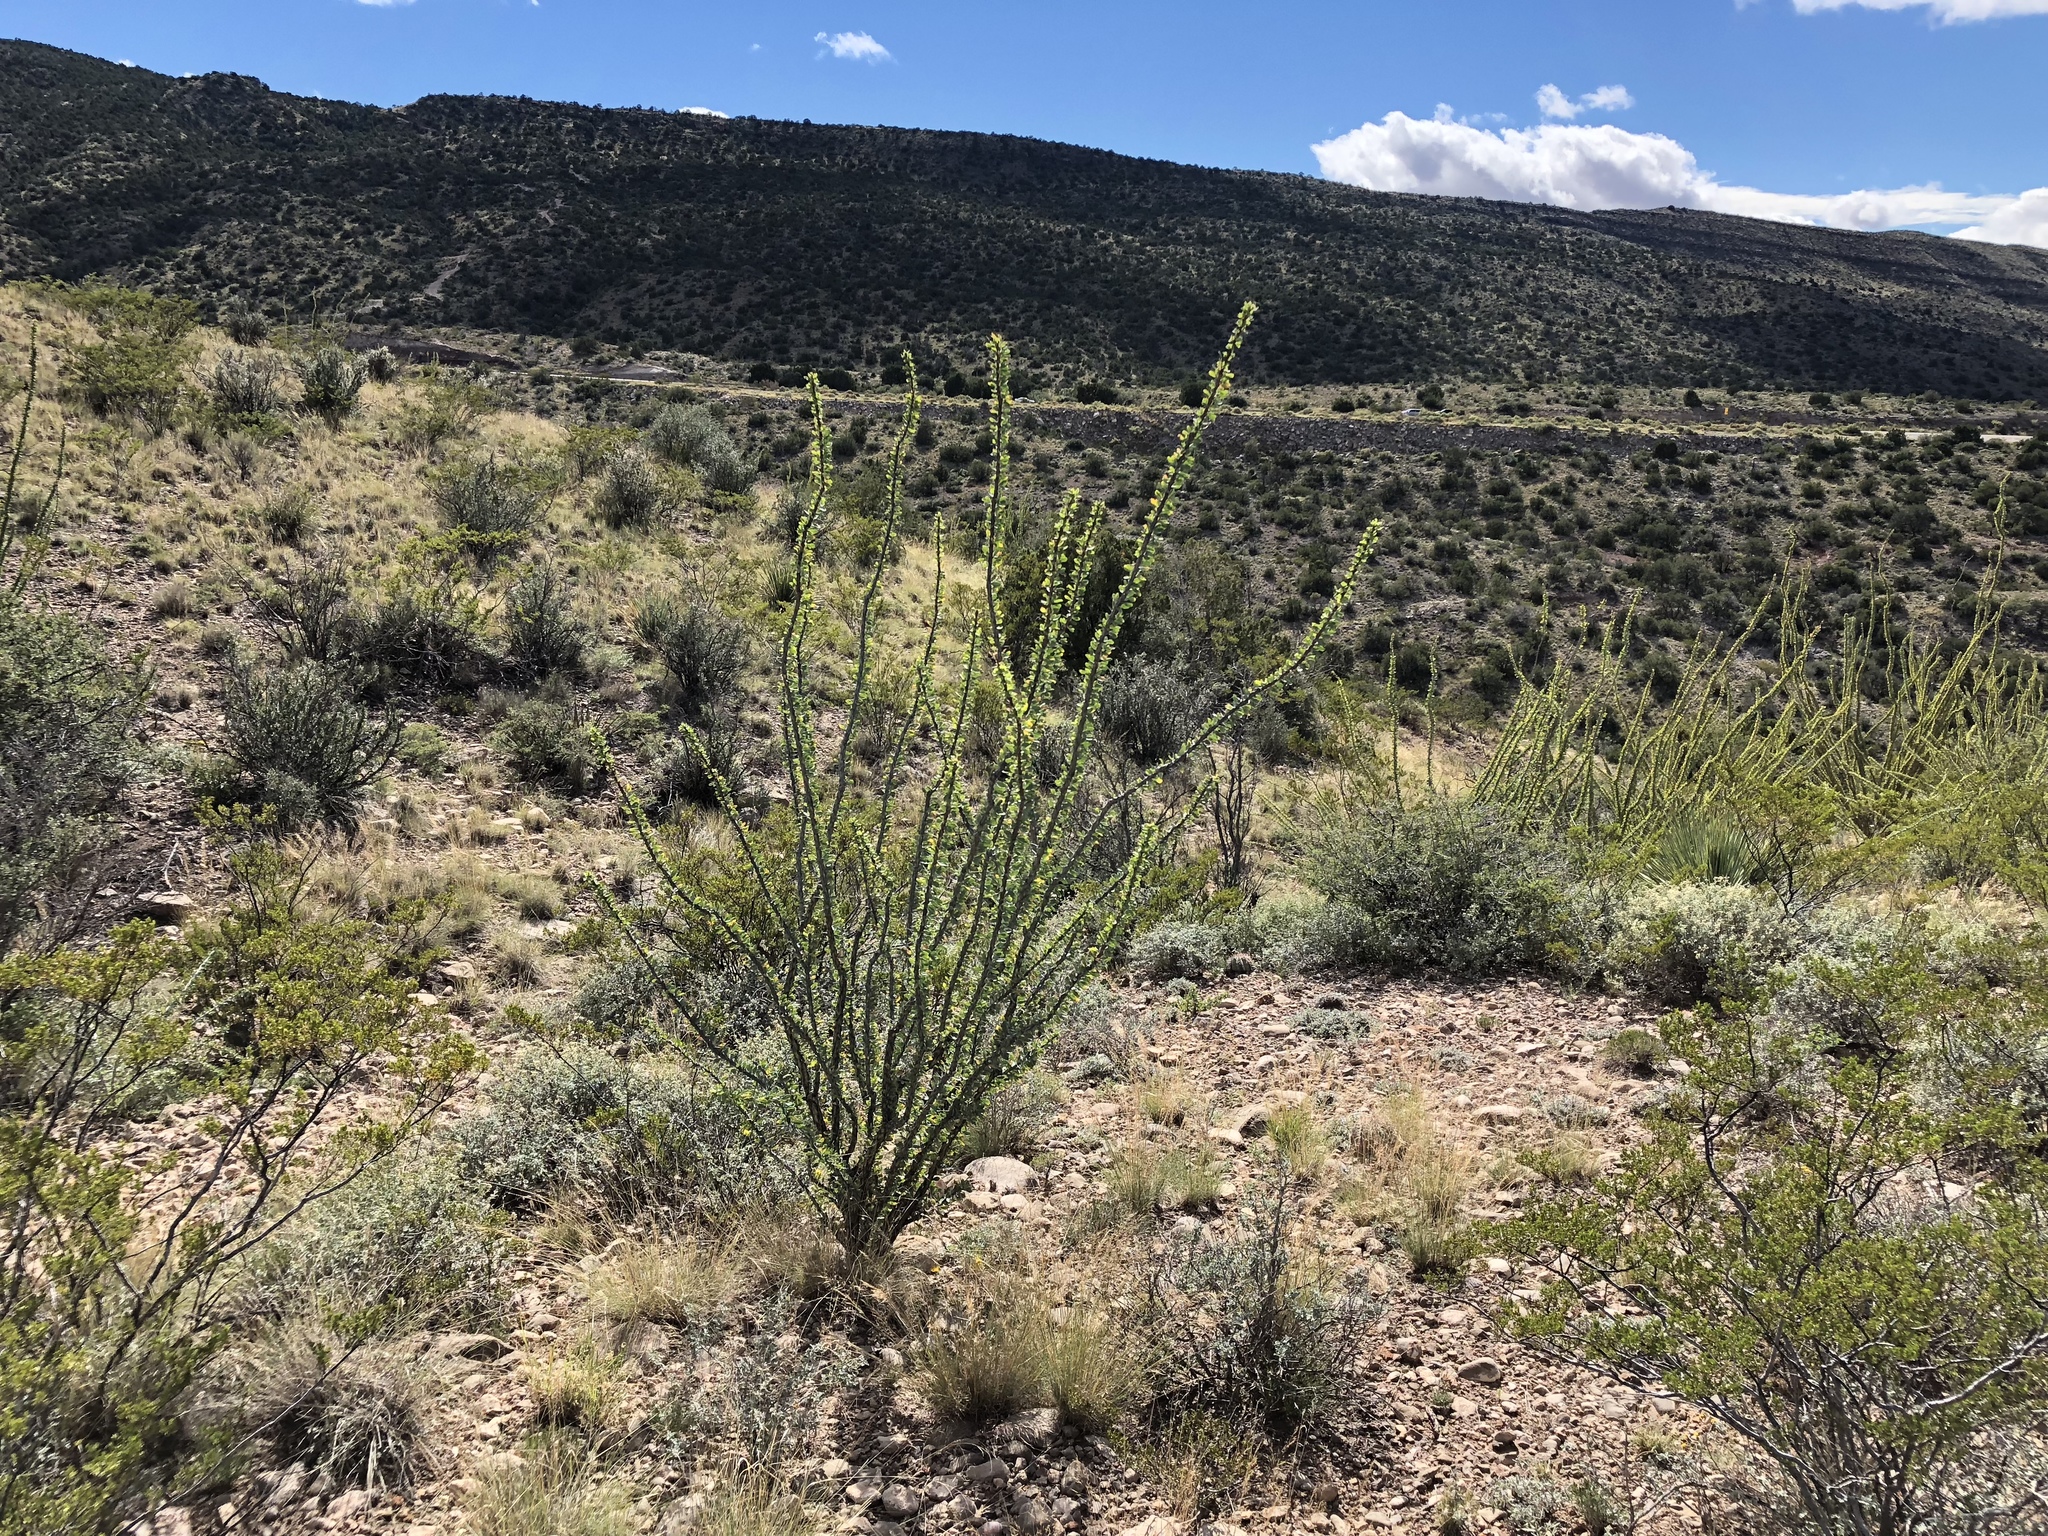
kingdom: Plantae
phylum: Tracheophyta
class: Magnoliopsida
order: Ericales
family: Fouquieriaceae
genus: Fouquieria
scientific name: Fouquieria splendens
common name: Vine-cactus
